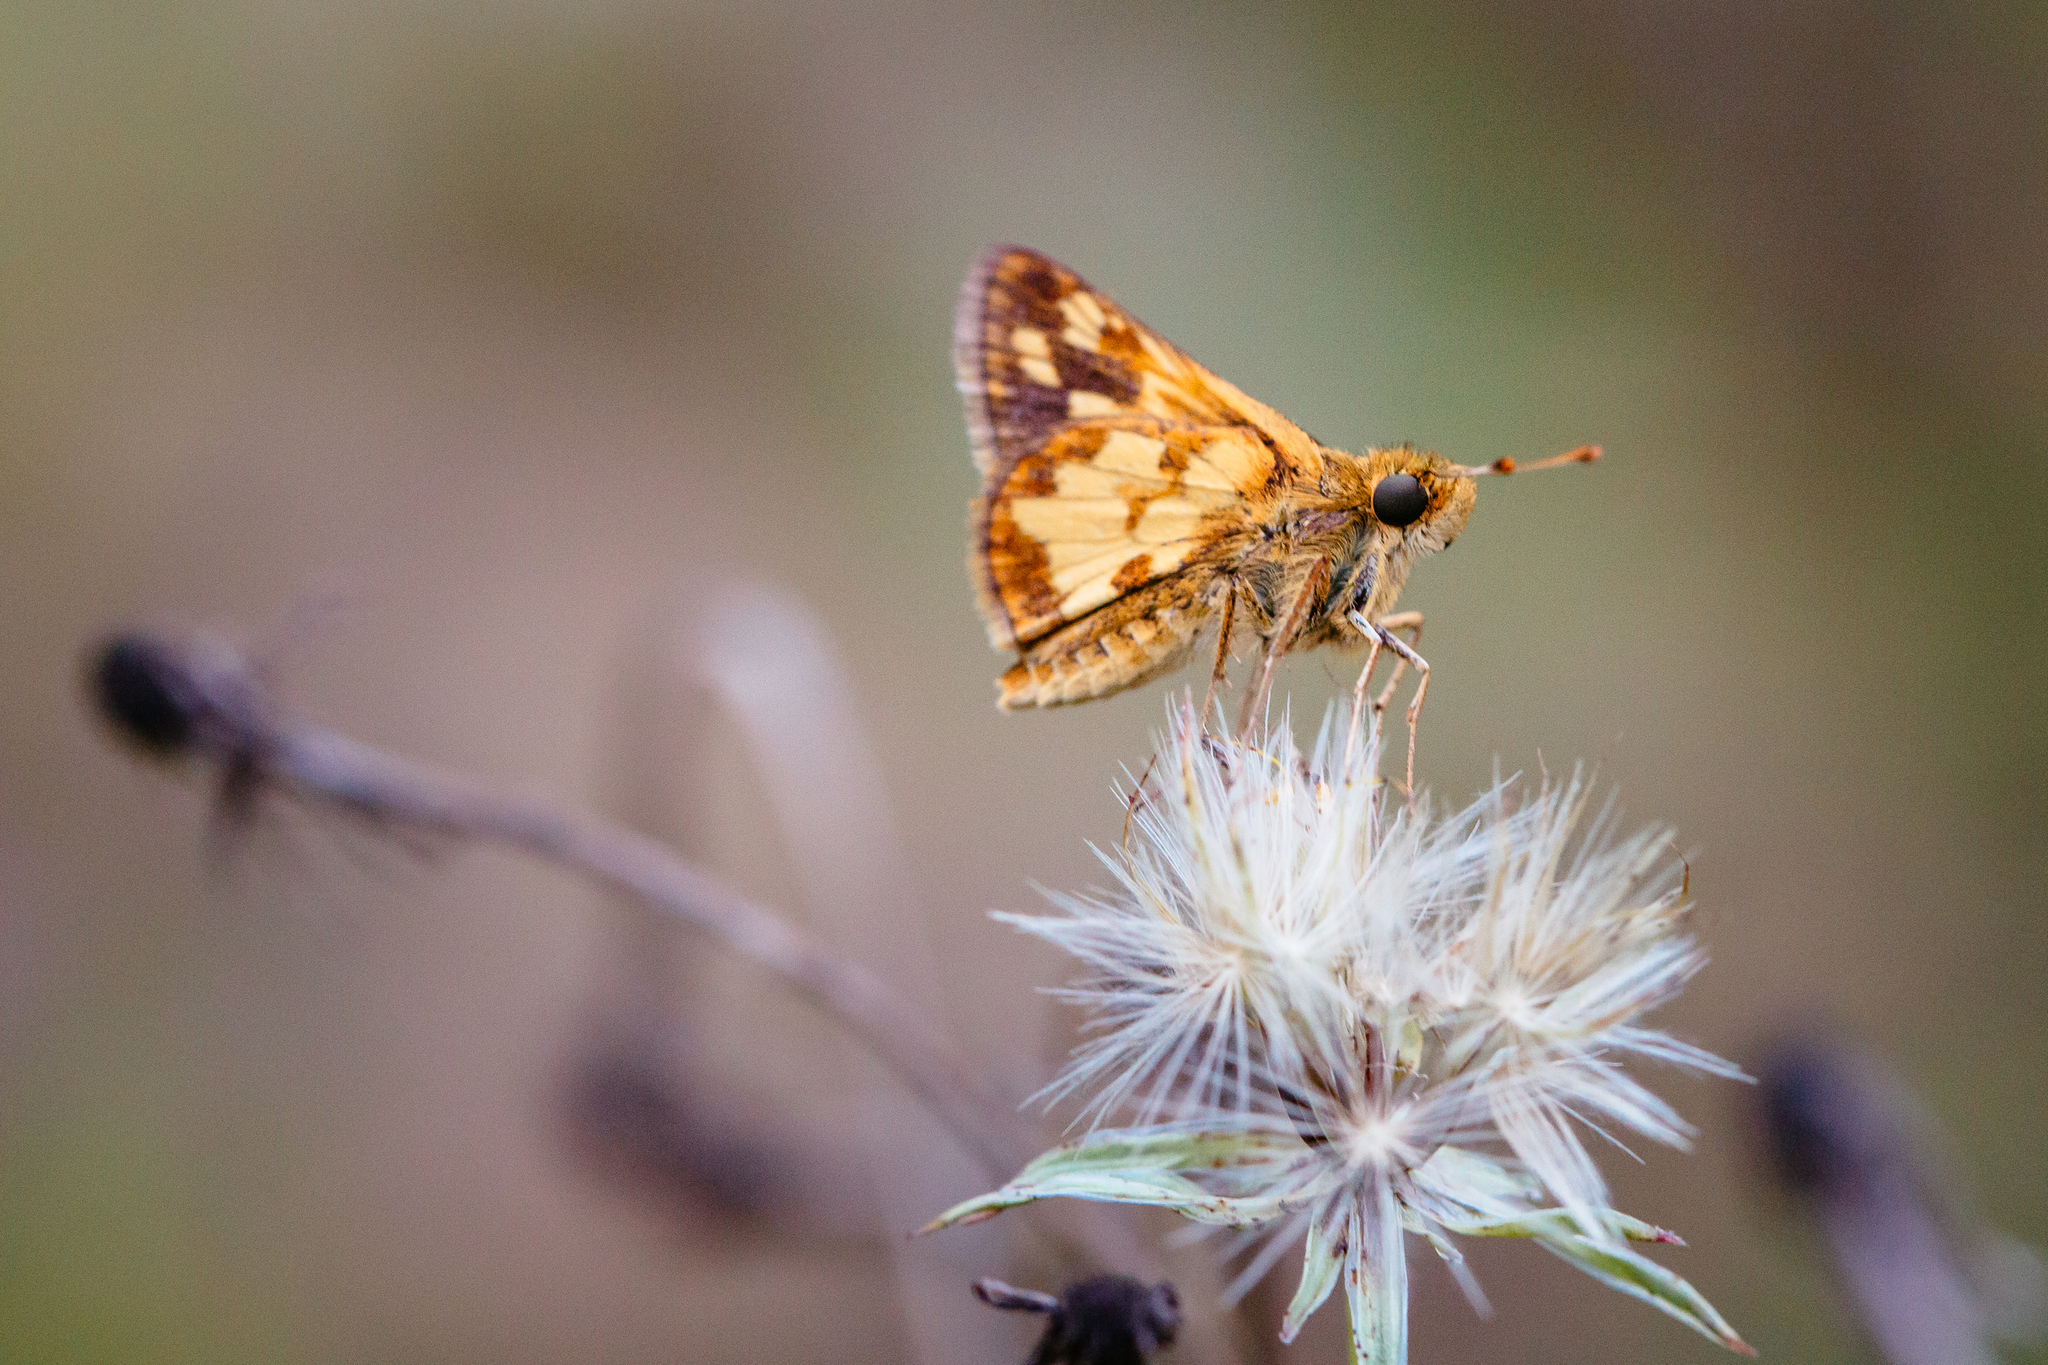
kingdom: Animalia
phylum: Arthropoda
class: Insecta
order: Lepidoptera
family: Hesperiidae
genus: Polites
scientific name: Polites coras
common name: Peck's skipper
